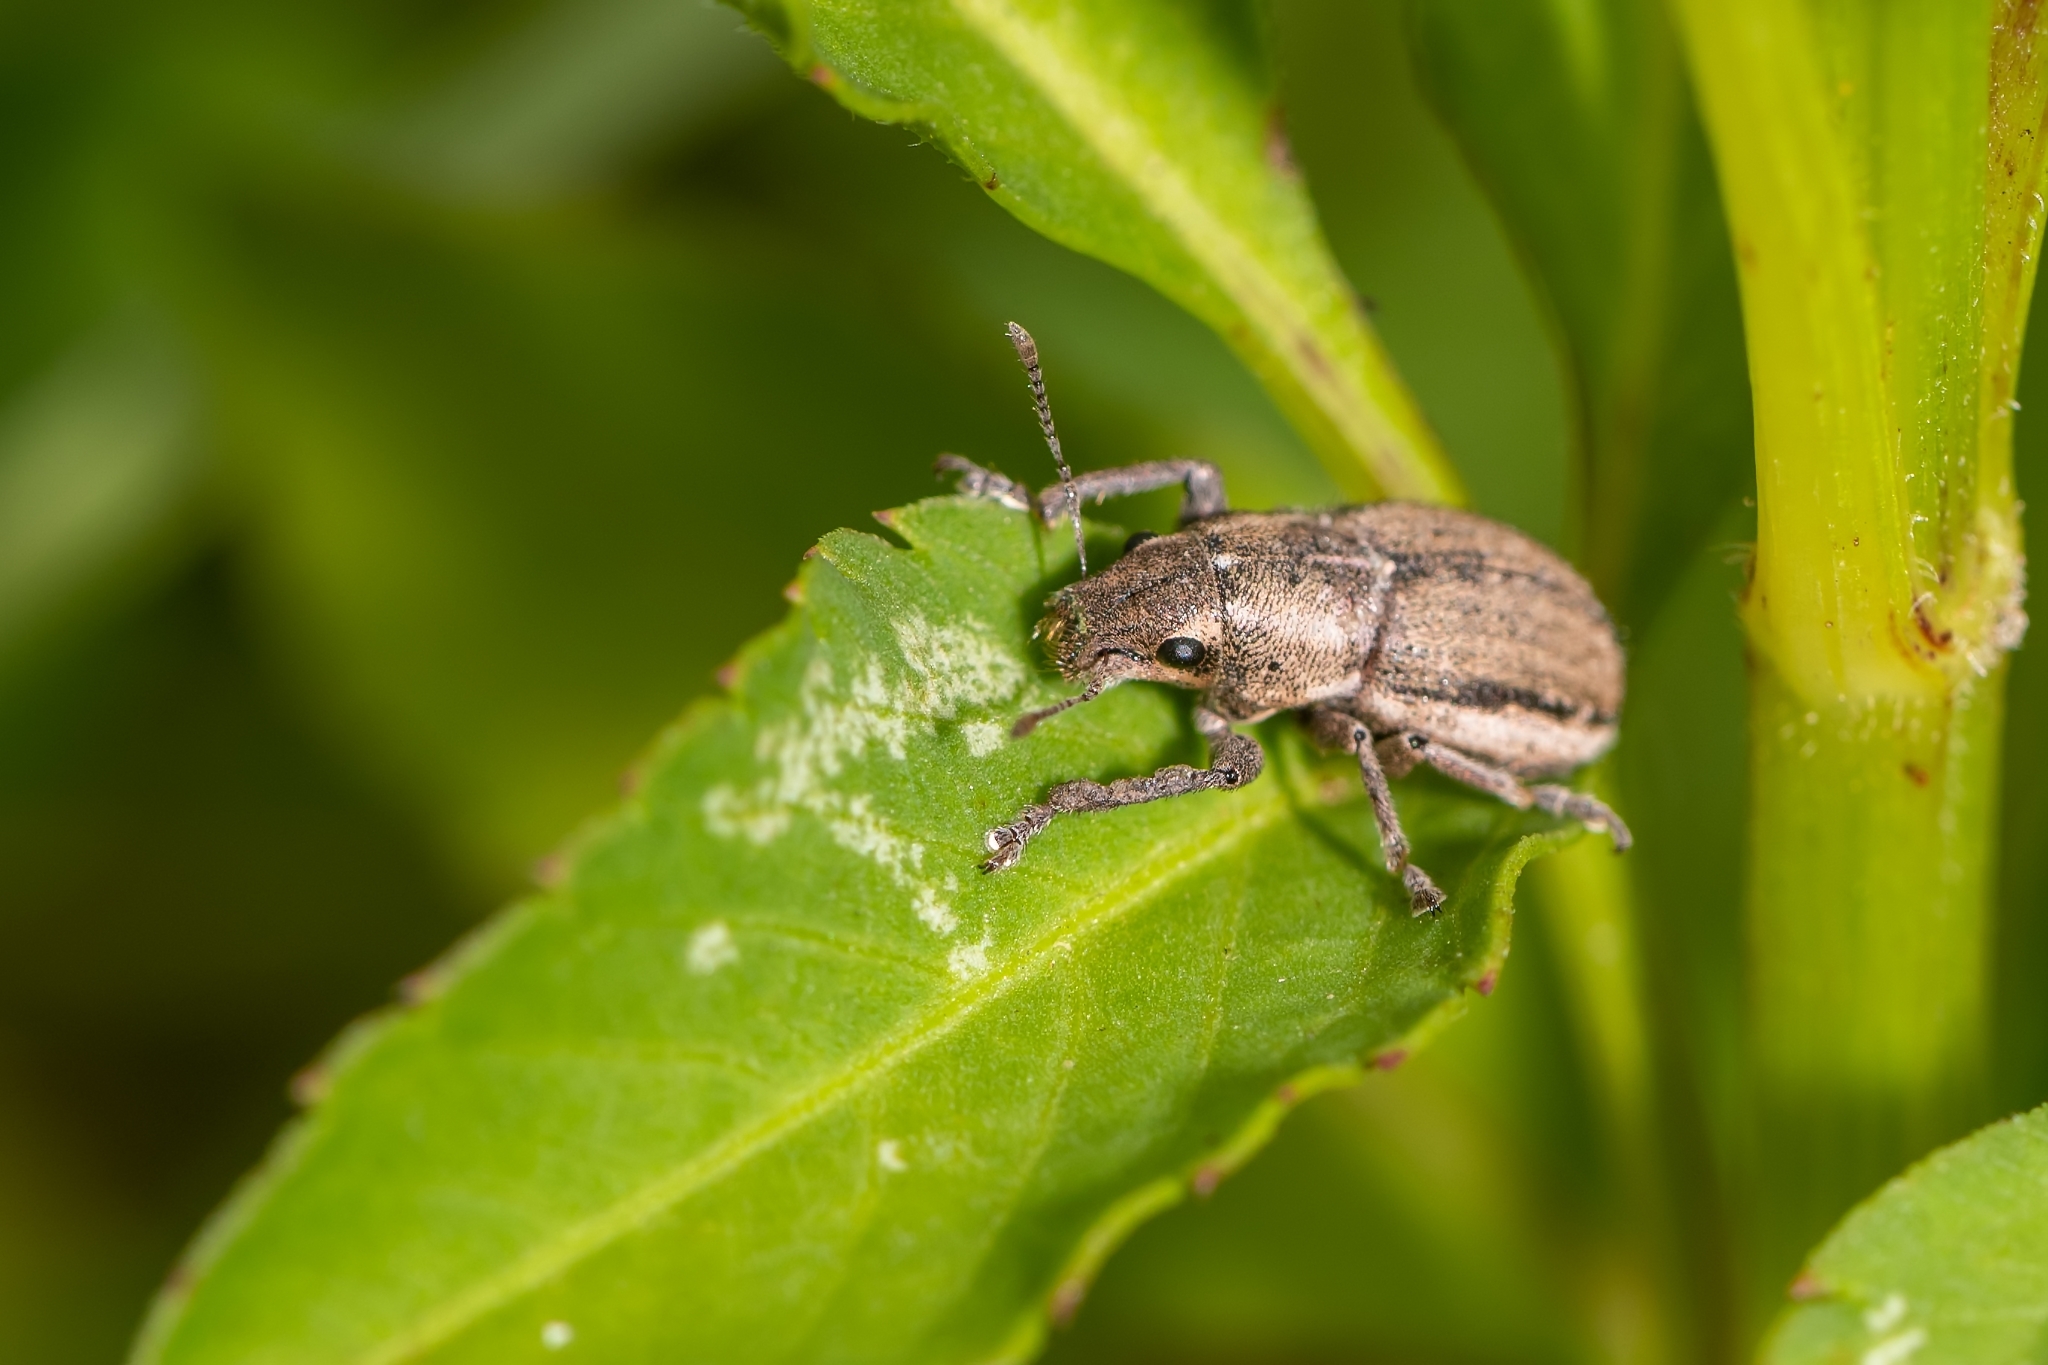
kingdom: Animalia
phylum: Arthropoda
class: Insecta
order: Coleoptera
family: Curculionidae
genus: Naupactus
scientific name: Naupactus peregrinus
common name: Whitefringed beetle
